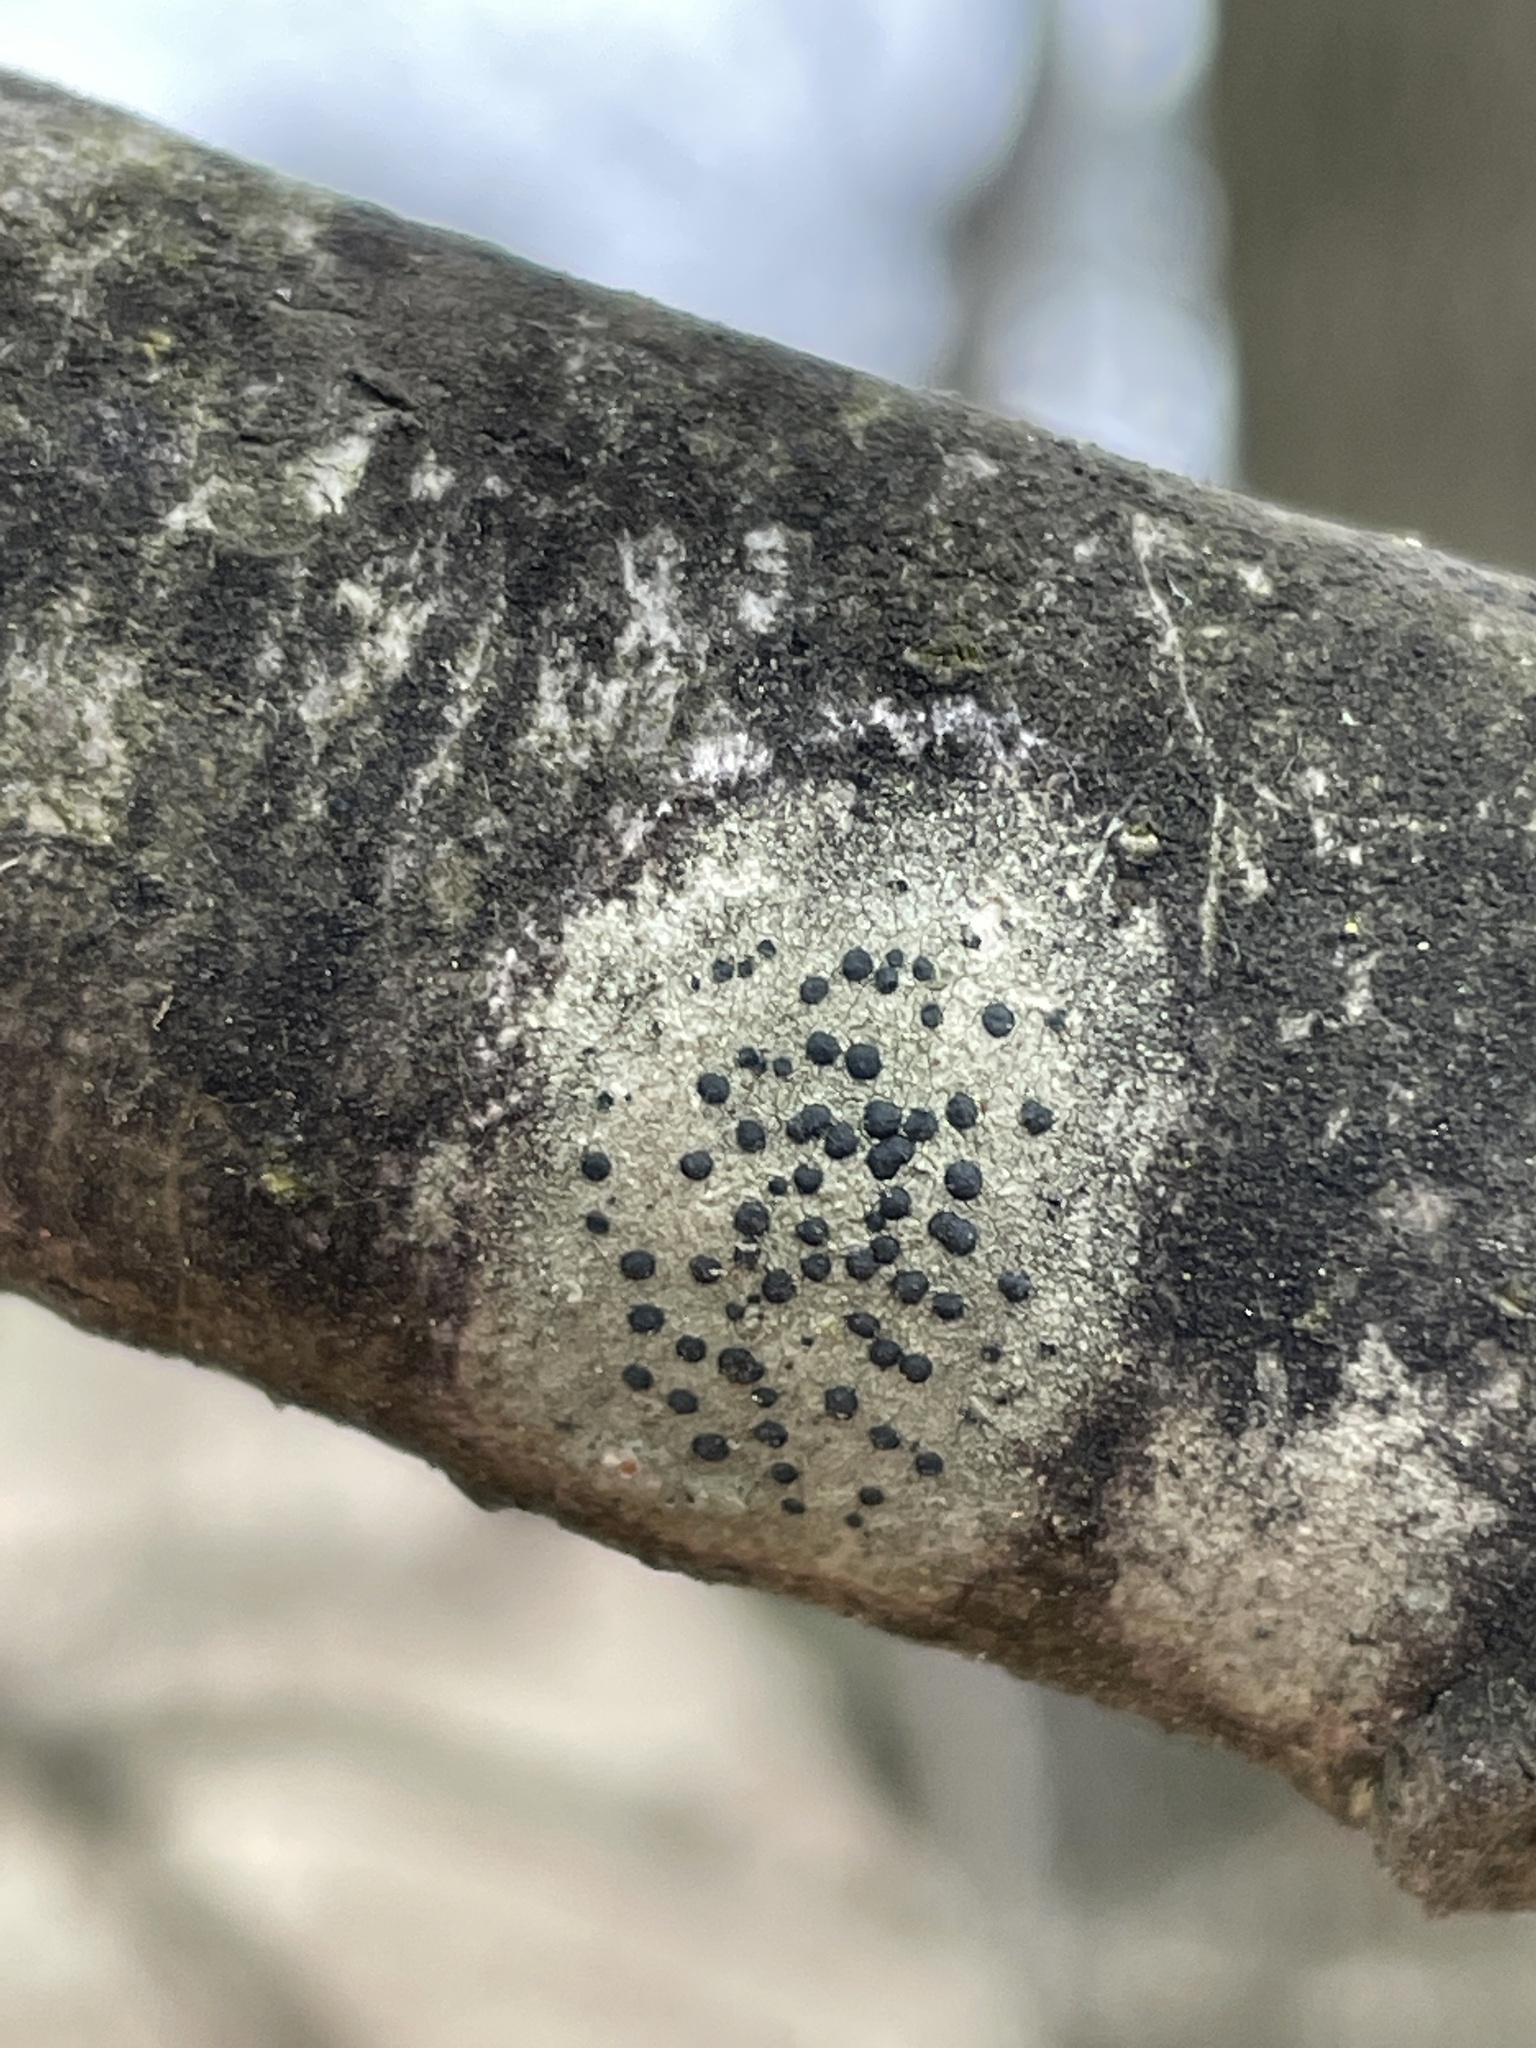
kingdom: Fungi
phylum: Ascomycota
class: Lecanoromycetes
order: Lecanorales
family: Lecanoraceae
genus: Lecidella
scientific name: Lecidella elaeochroma
